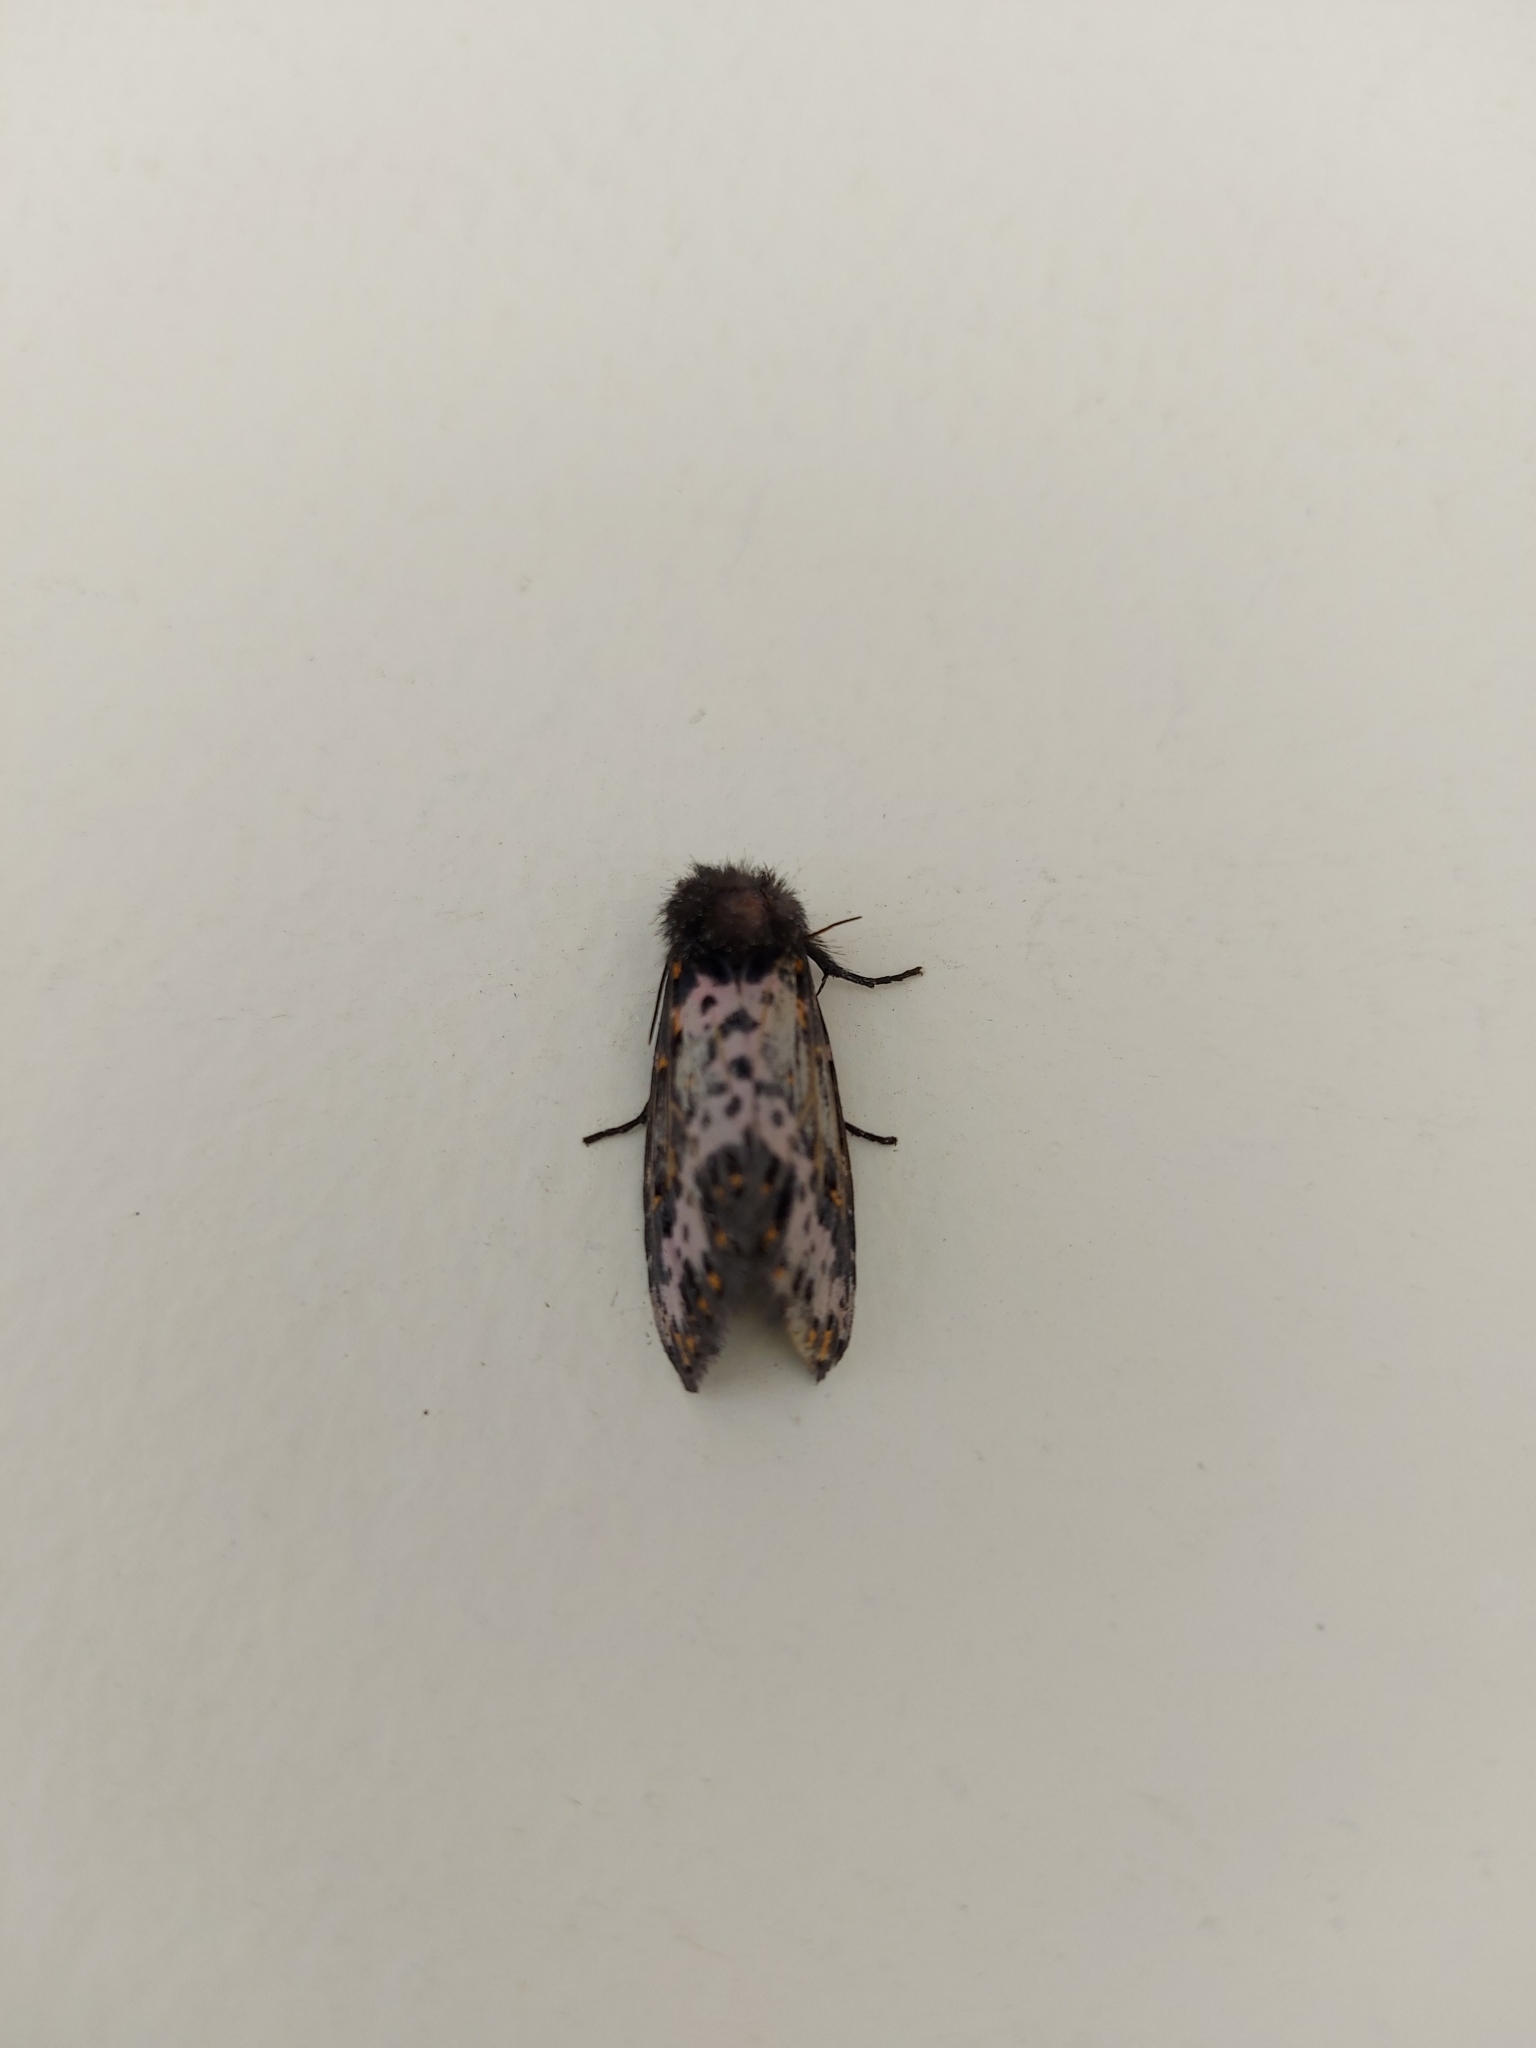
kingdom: Animalia
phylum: Arthropoda
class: Insecta
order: Lepidoptera
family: Noctuidae
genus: Xanthopastis
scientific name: Xanthopastis timais
